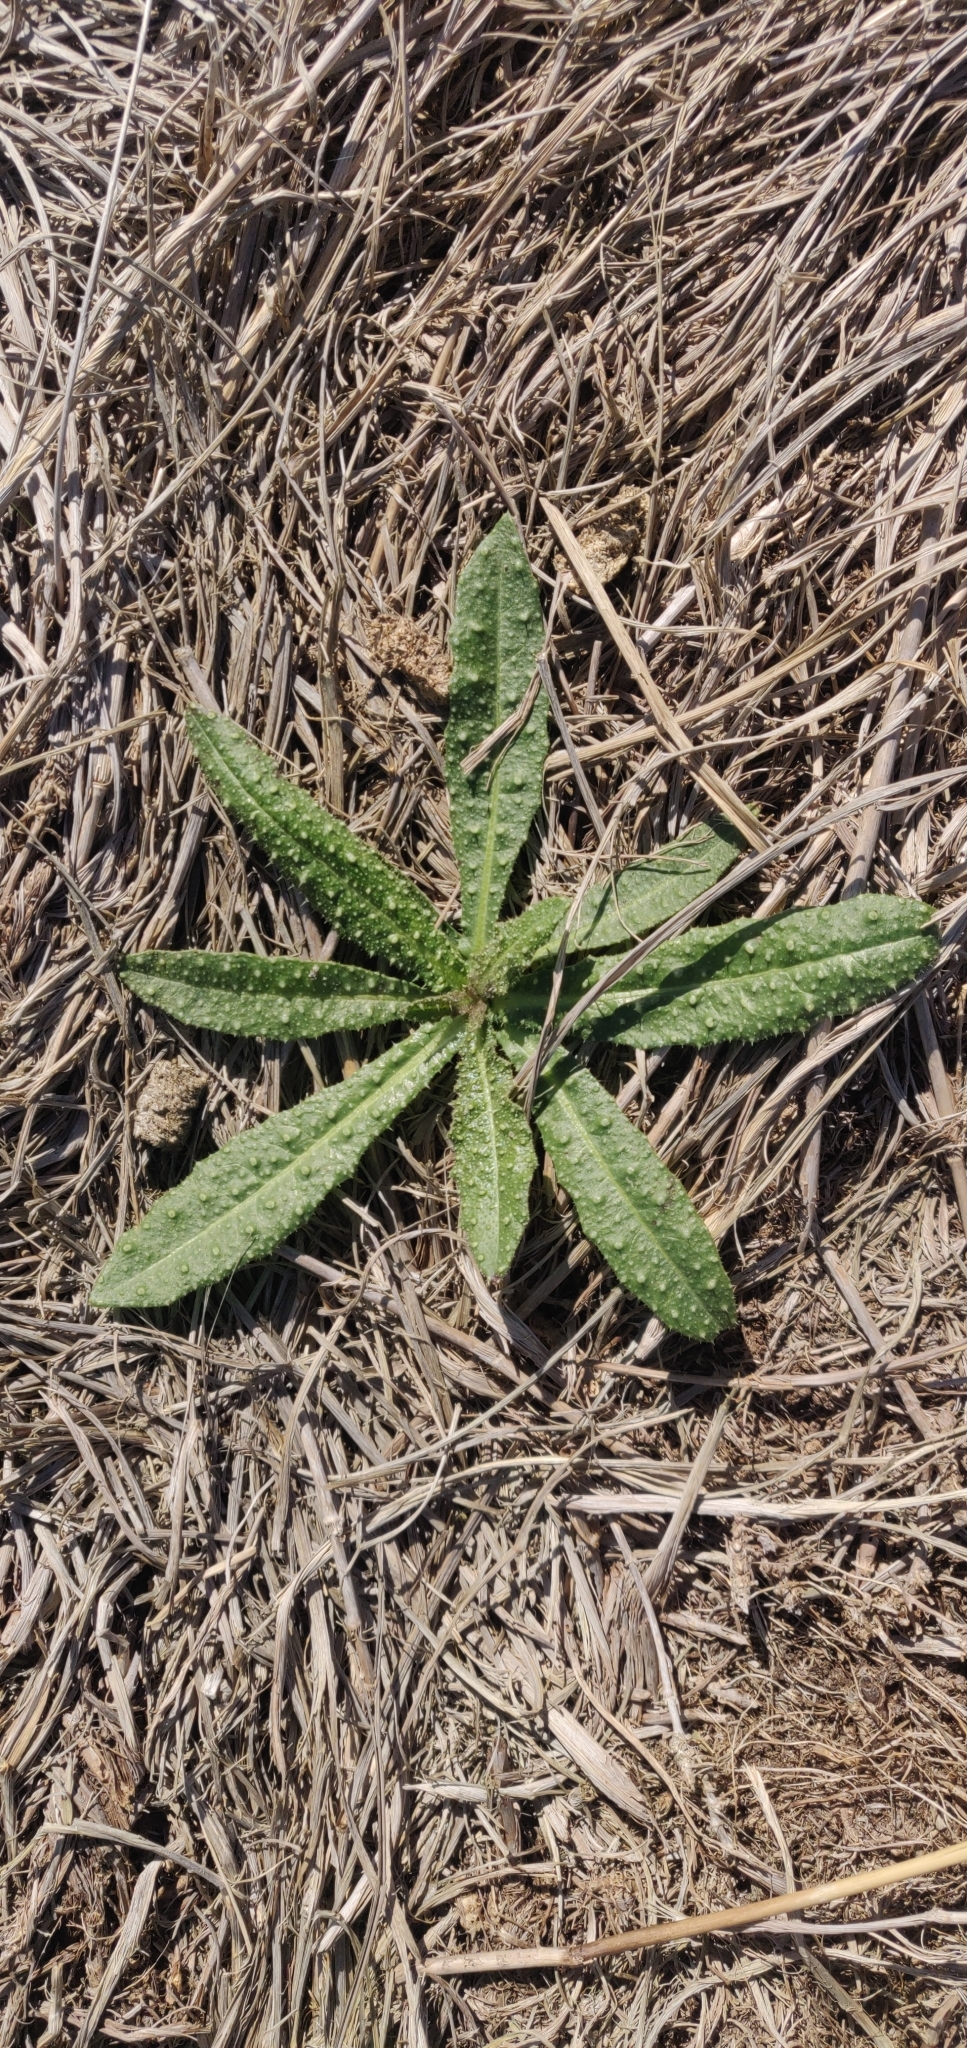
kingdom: Plantae
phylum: Tracheophyta
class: Magnoliopsida
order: Asterales
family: Asteraceae
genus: Helminthotheca
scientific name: Helminthotheca echioides
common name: Ox-tongue
